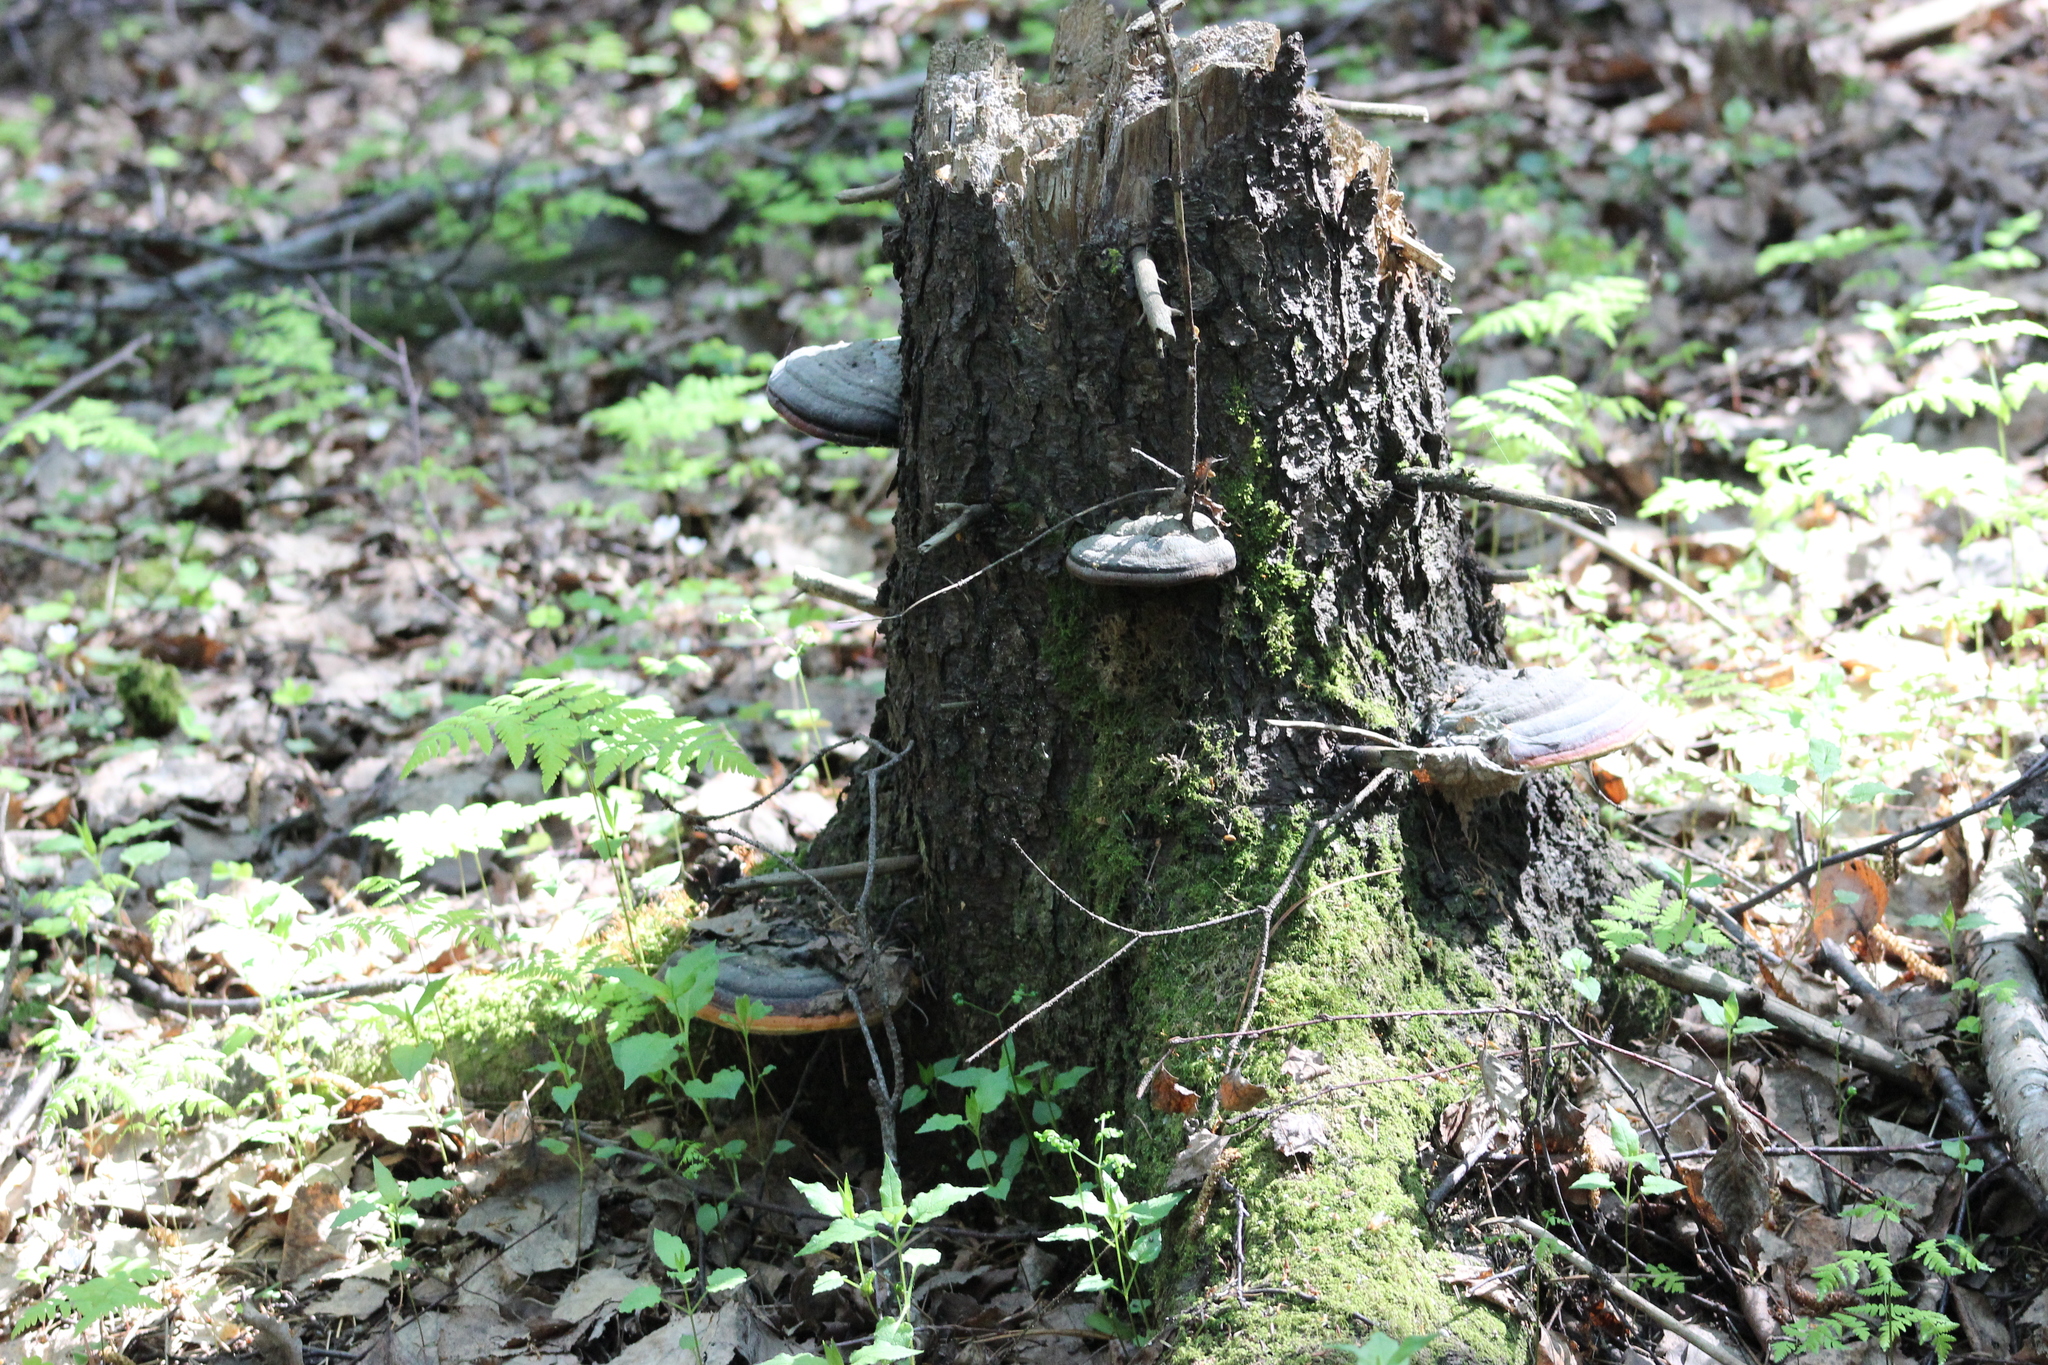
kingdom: Fungi
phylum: Basidiomycota
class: Agaricomycetes
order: Polyporales
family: Fomitopsidaceae
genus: Fomitopsis
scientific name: Fomitopsis pinicola
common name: Red-belted bracket
